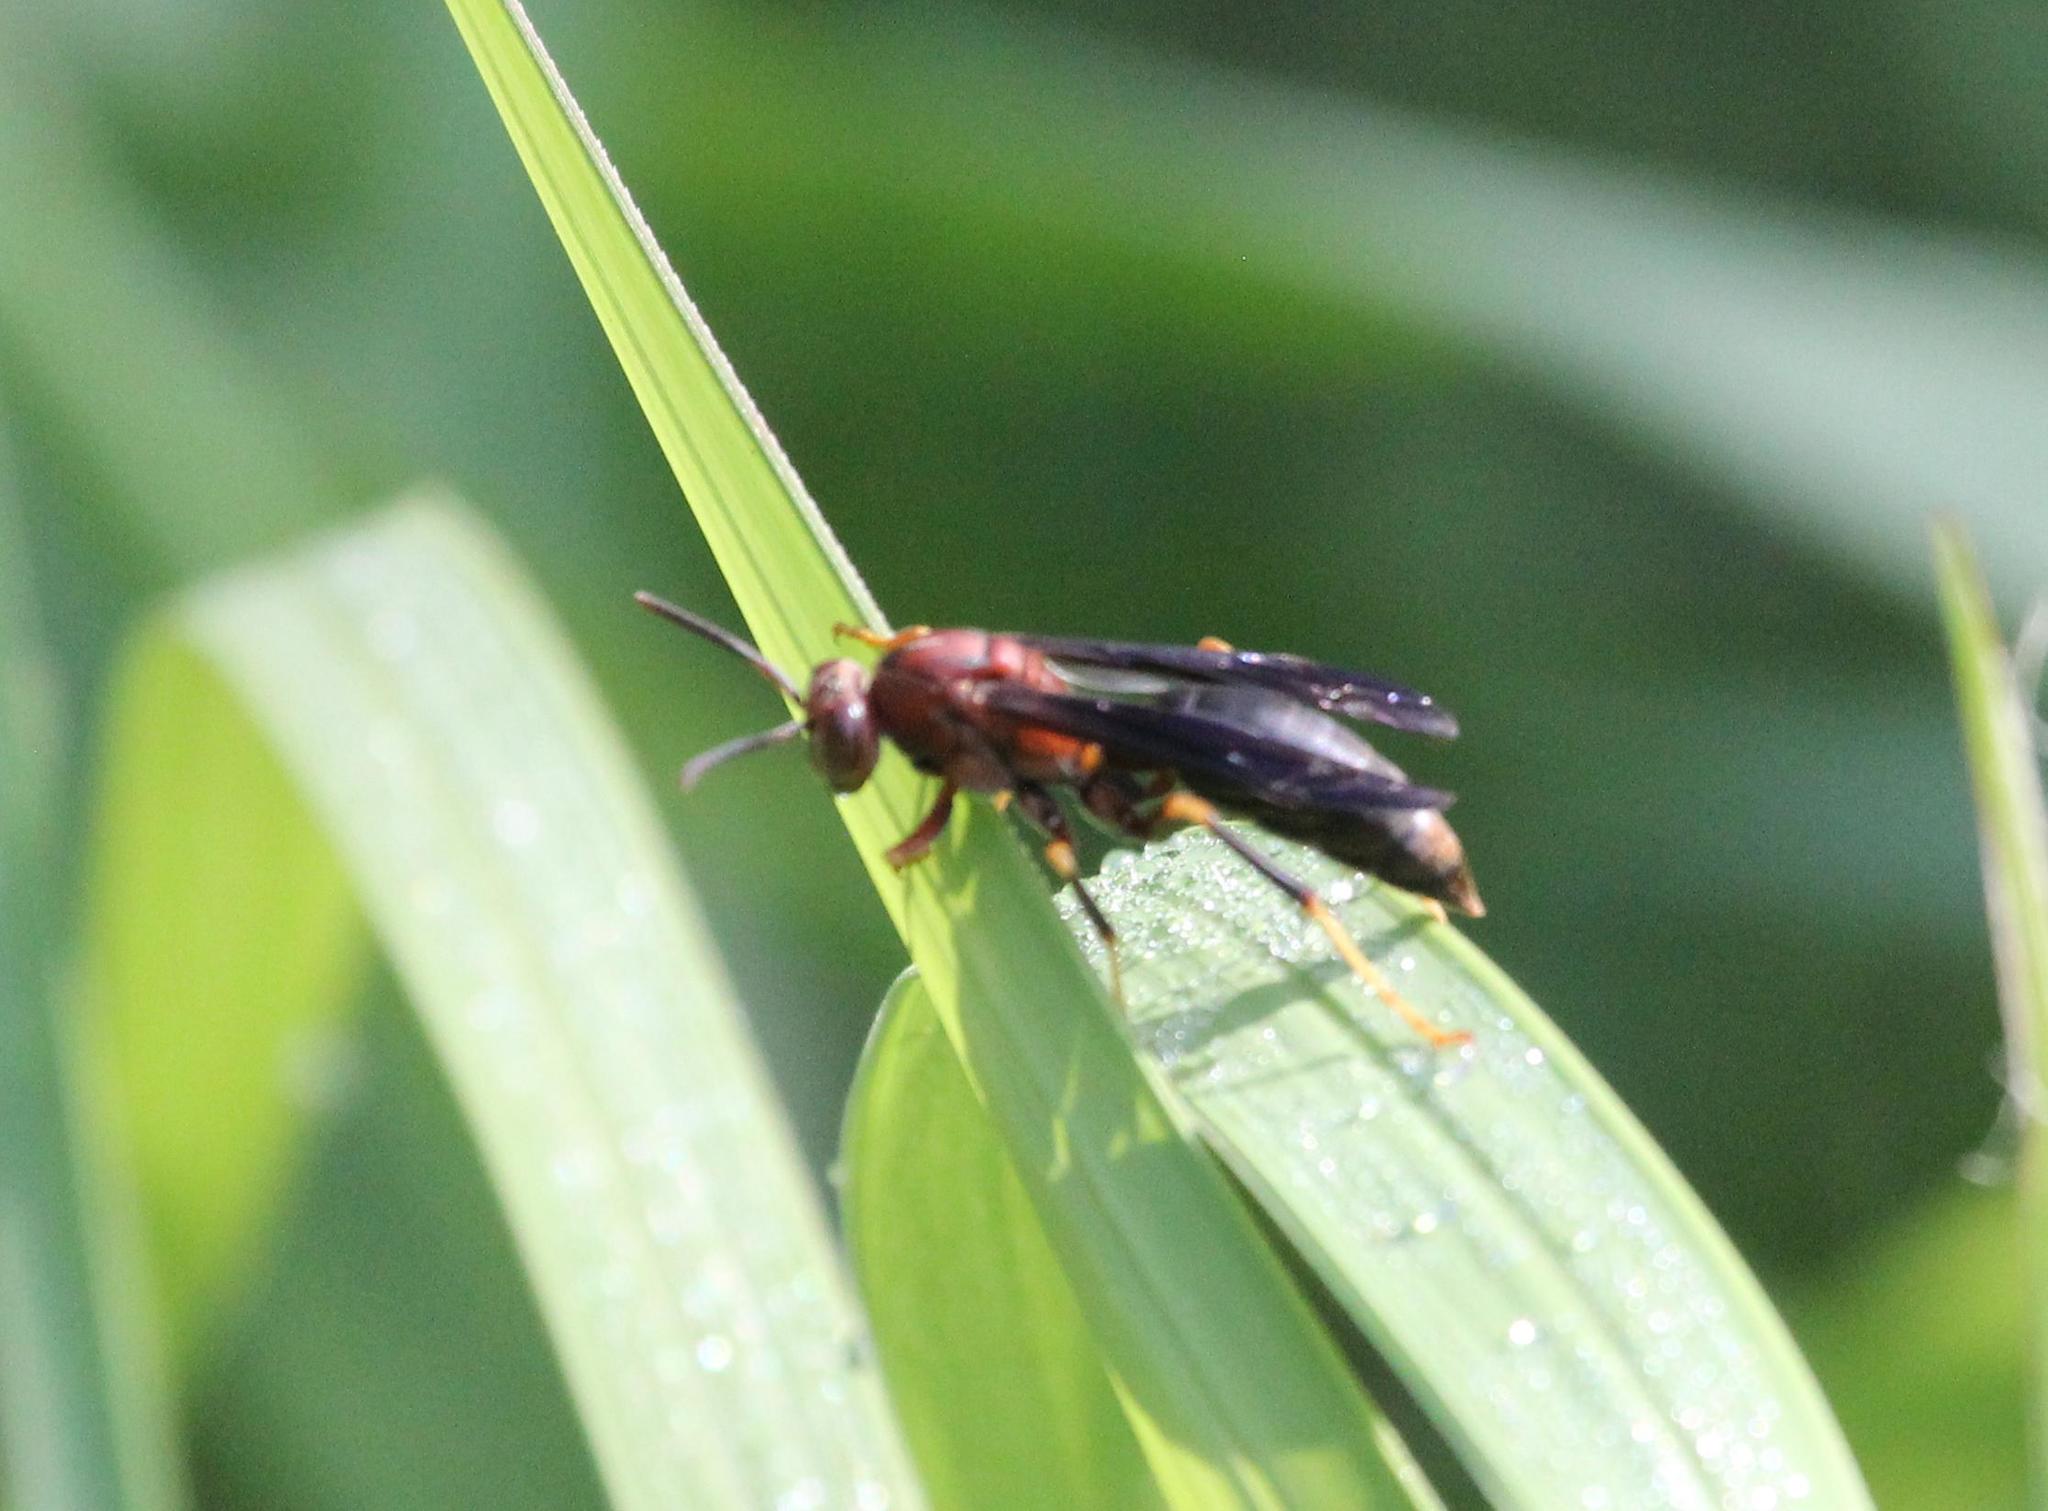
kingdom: Animalia
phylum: Arthropoda
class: Insecta
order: Hymenoptera
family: Eumenidae
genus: Polistes
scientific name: Polistes metricus
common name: Metric paper wasp
